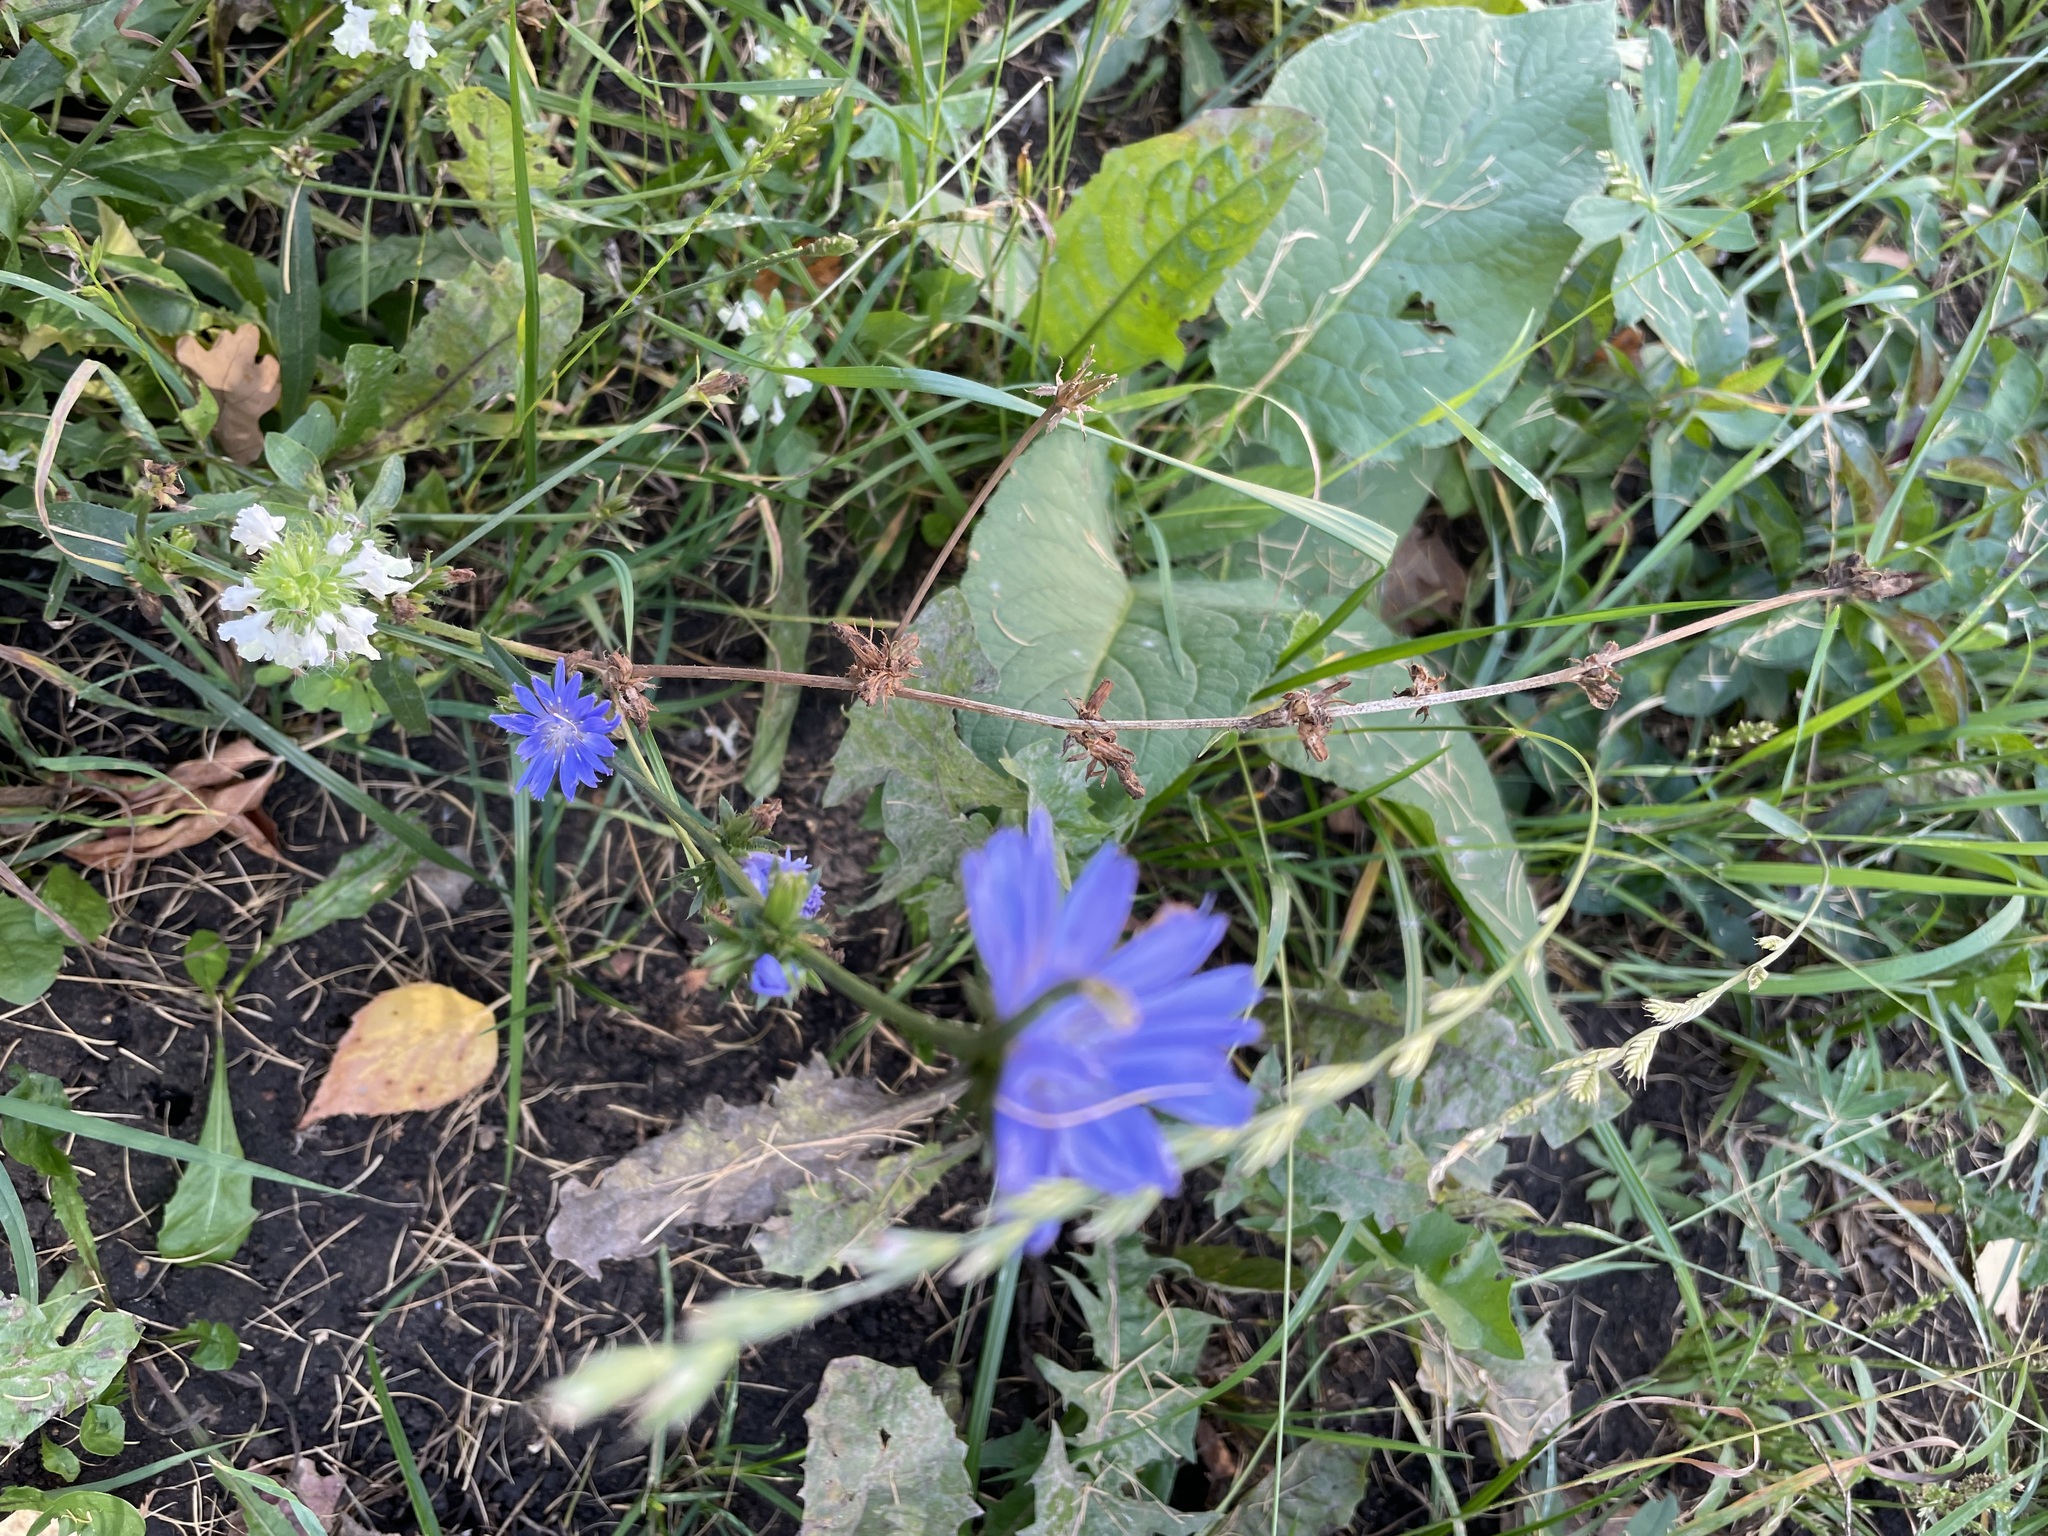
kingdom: Plantae
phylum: Tracheophyta
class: Magnoliopsida
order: Asterales
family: Asteraceae
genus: Cichorium
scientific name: Cichorium intybus
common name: Chicory
